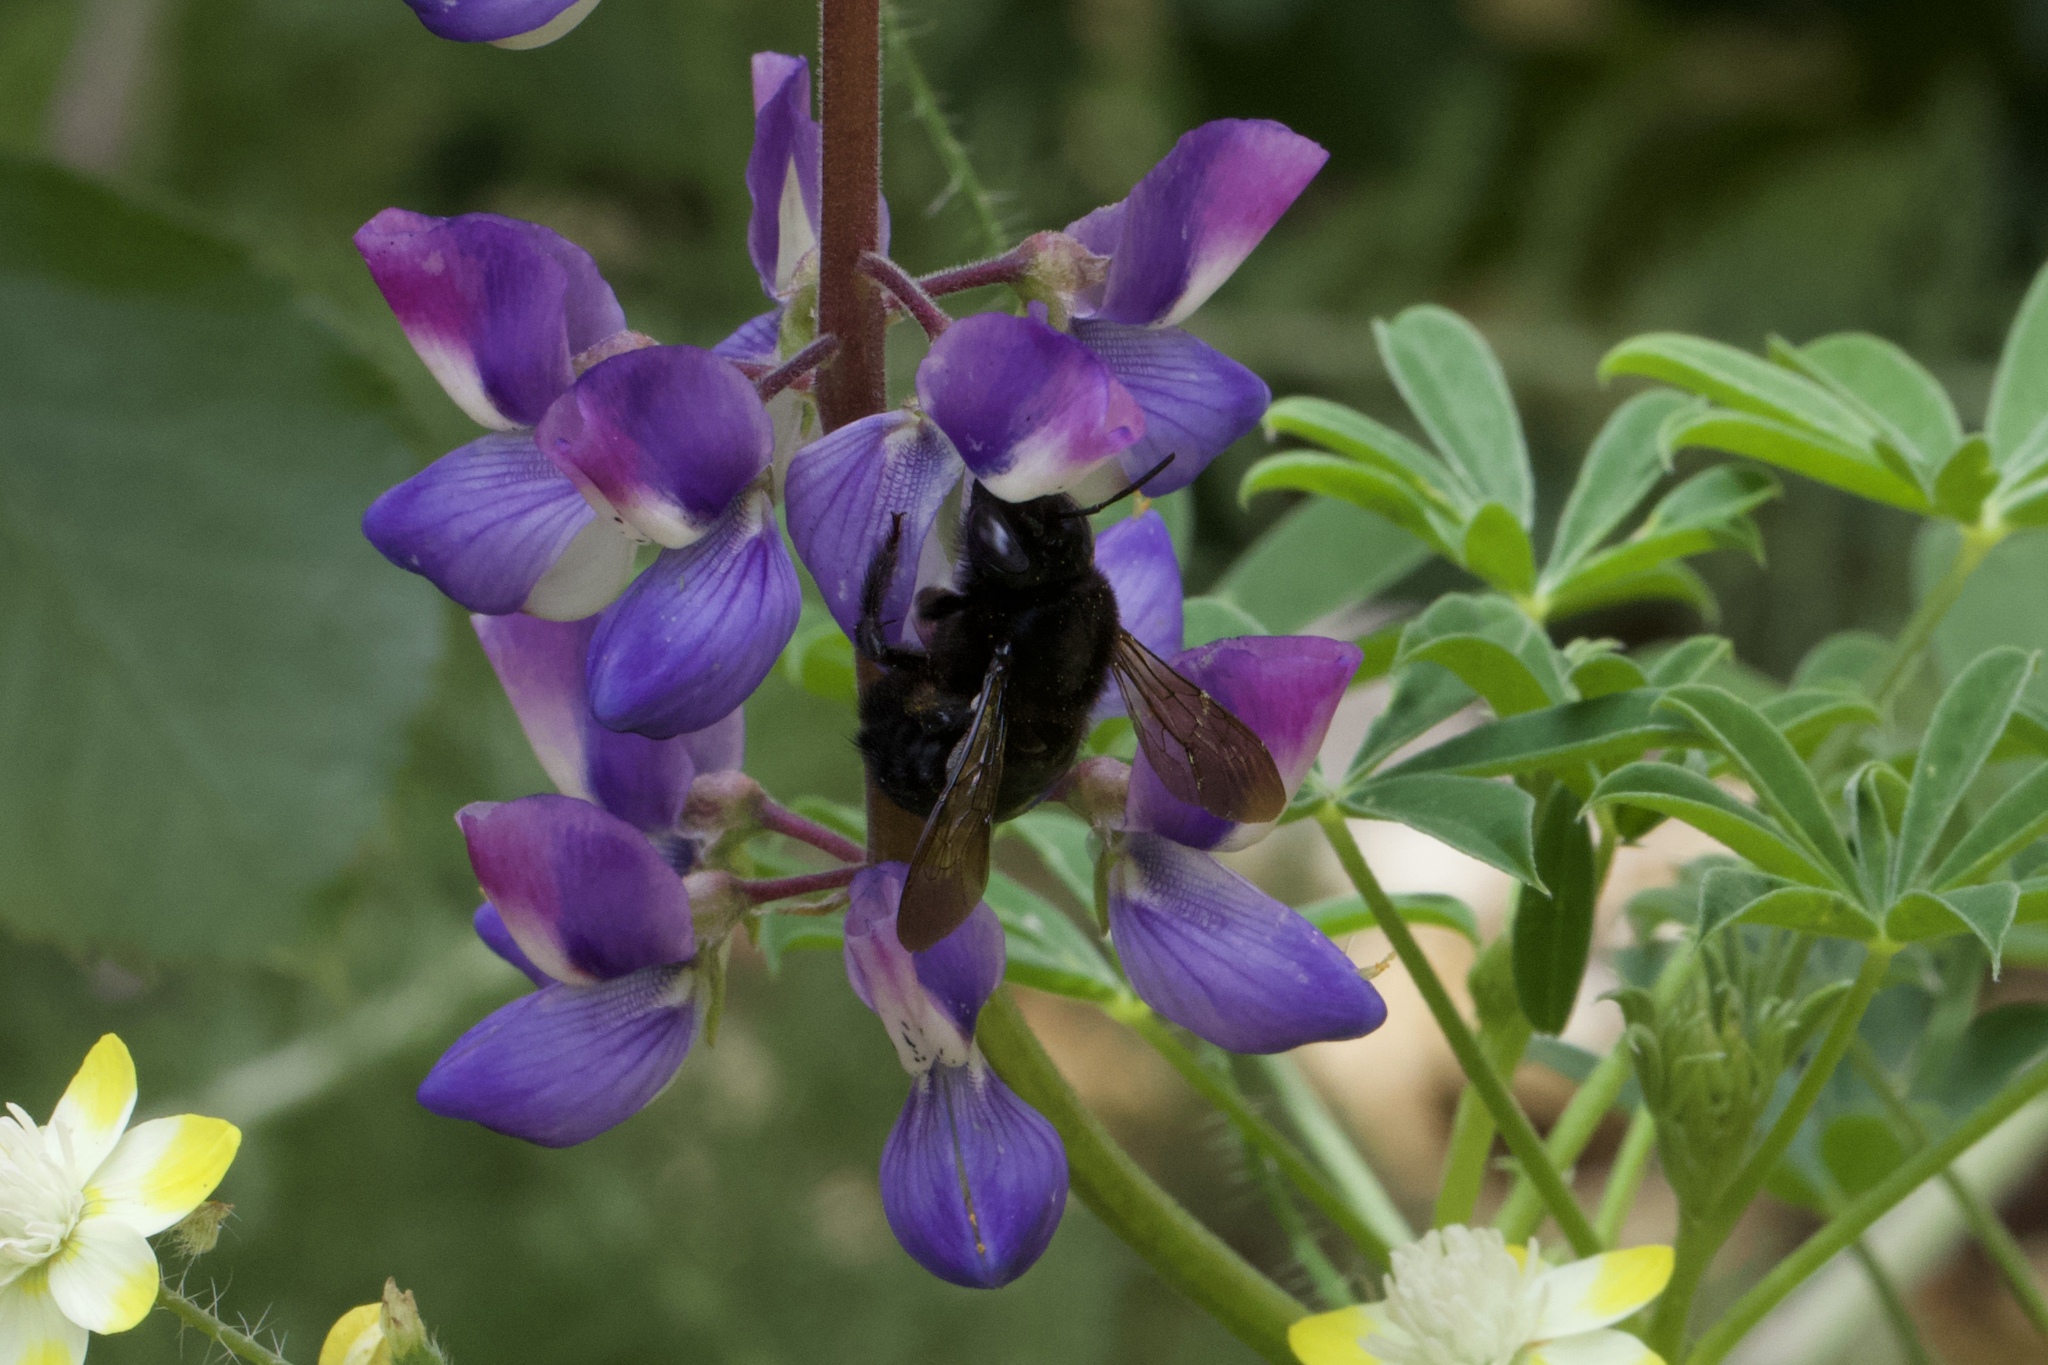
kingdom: Animalia
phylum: Arthropoda
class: Insecta
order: Hymenoptera
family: Apidae
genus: Xylocopa
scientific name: Xylocopa sonorina
